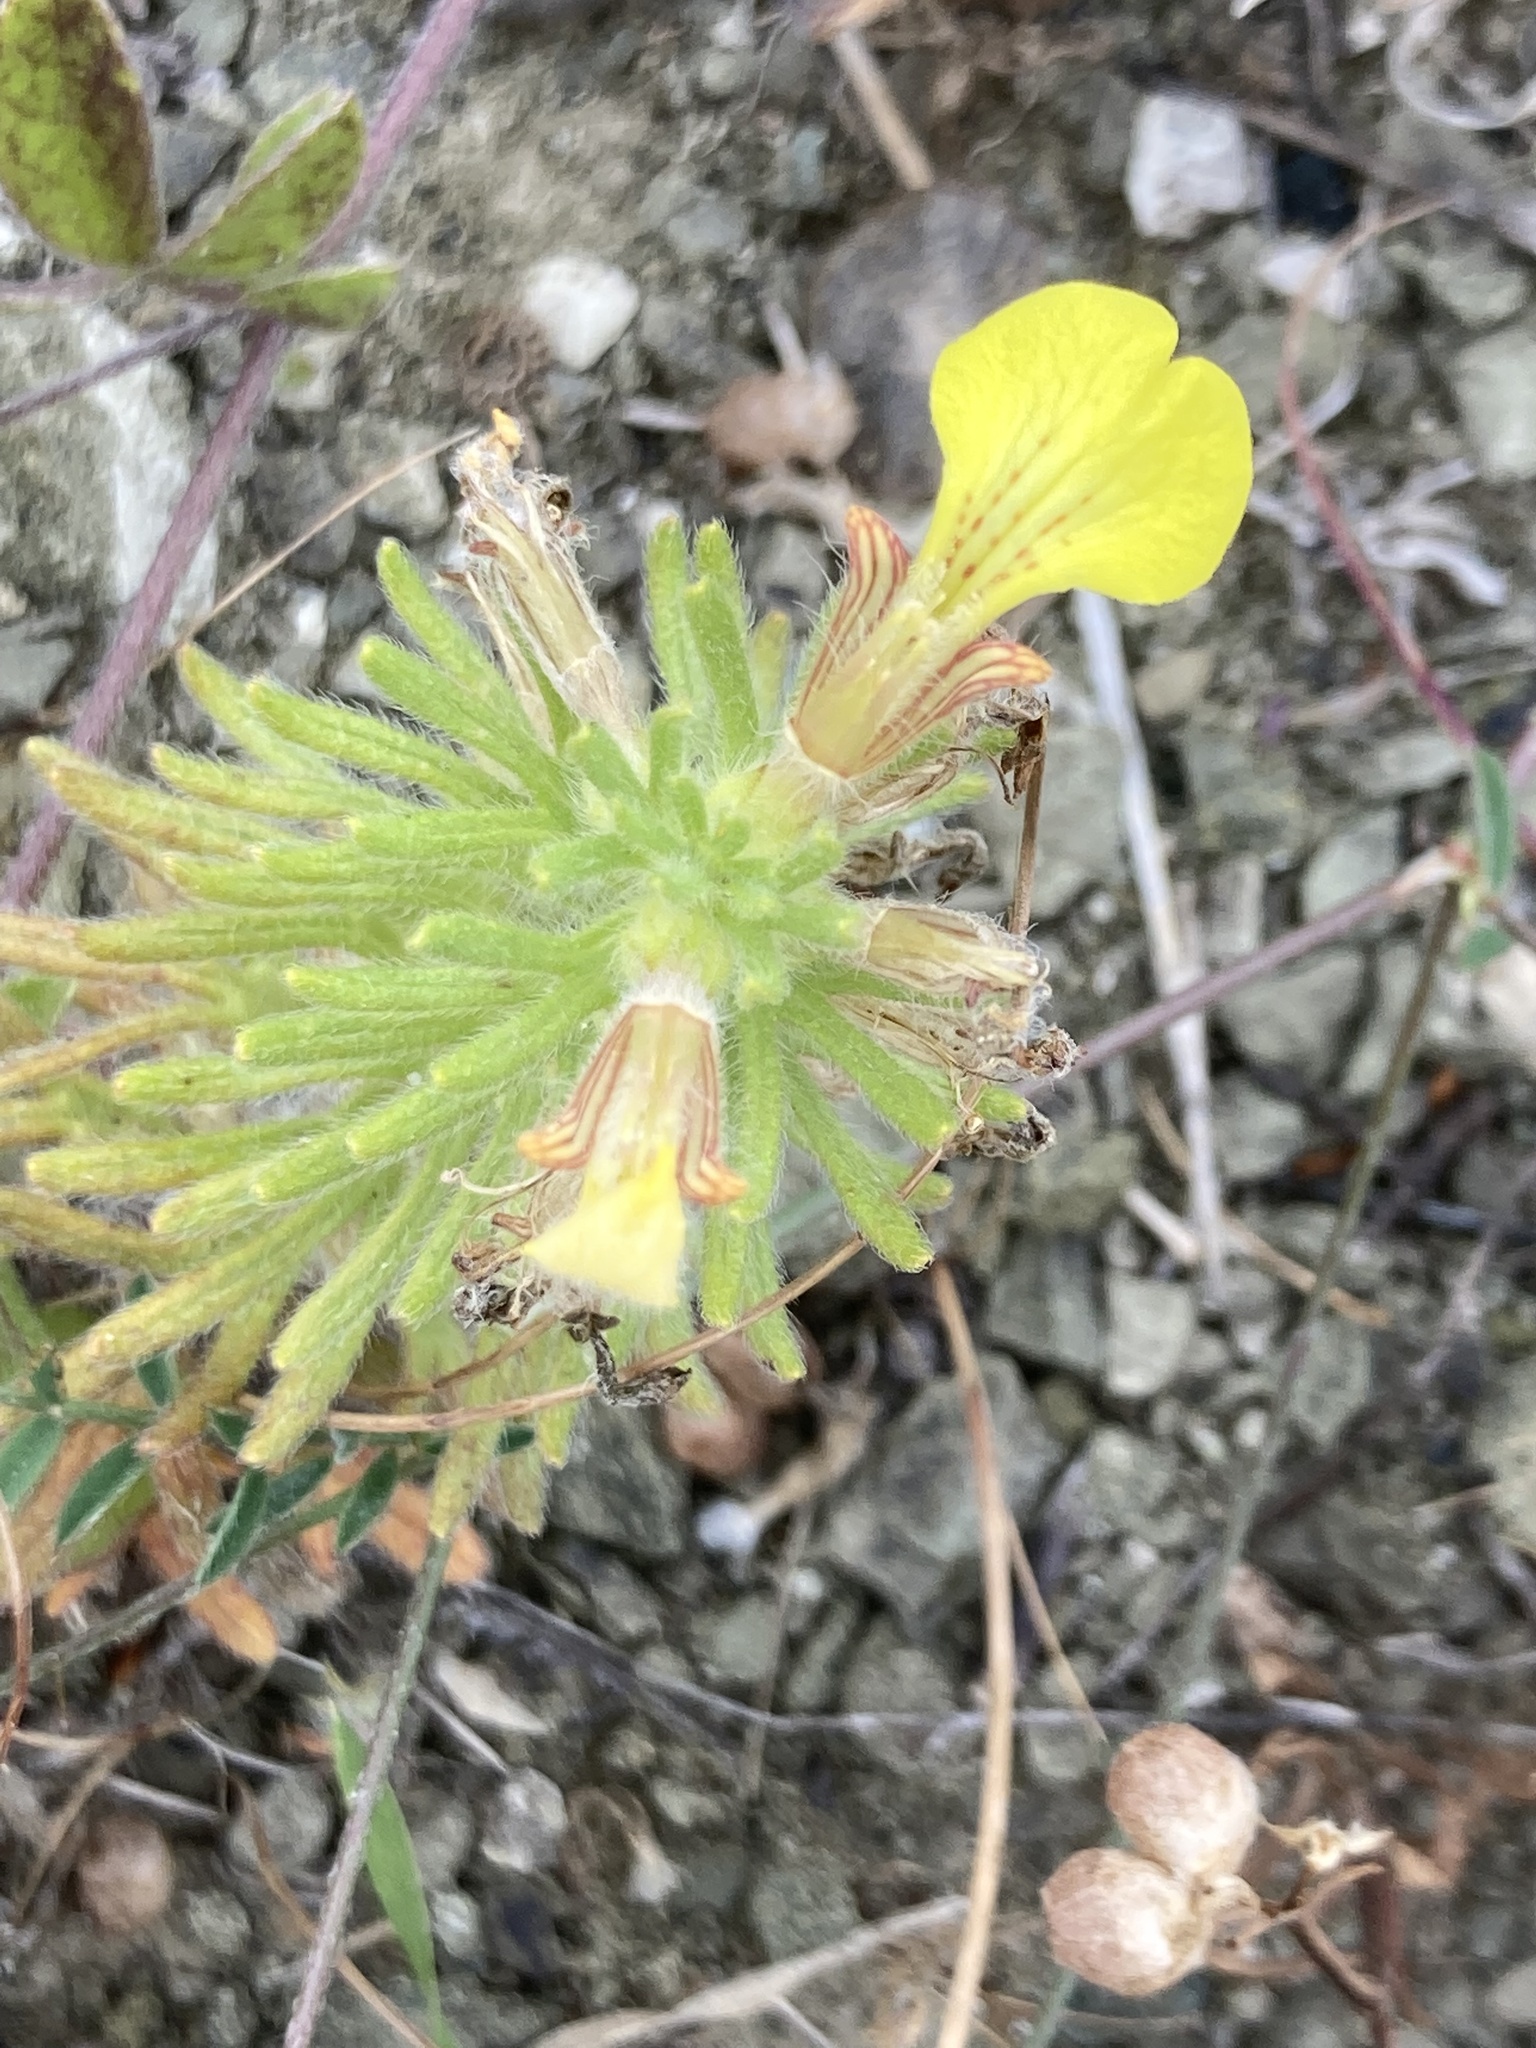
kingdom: Plantae
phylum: Tracheophyta
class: Magnoliopsida
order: Lamiales
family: Lamiaceae
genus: Ajuga
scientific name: Ajuga chamaepitys
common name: Ground-pine
